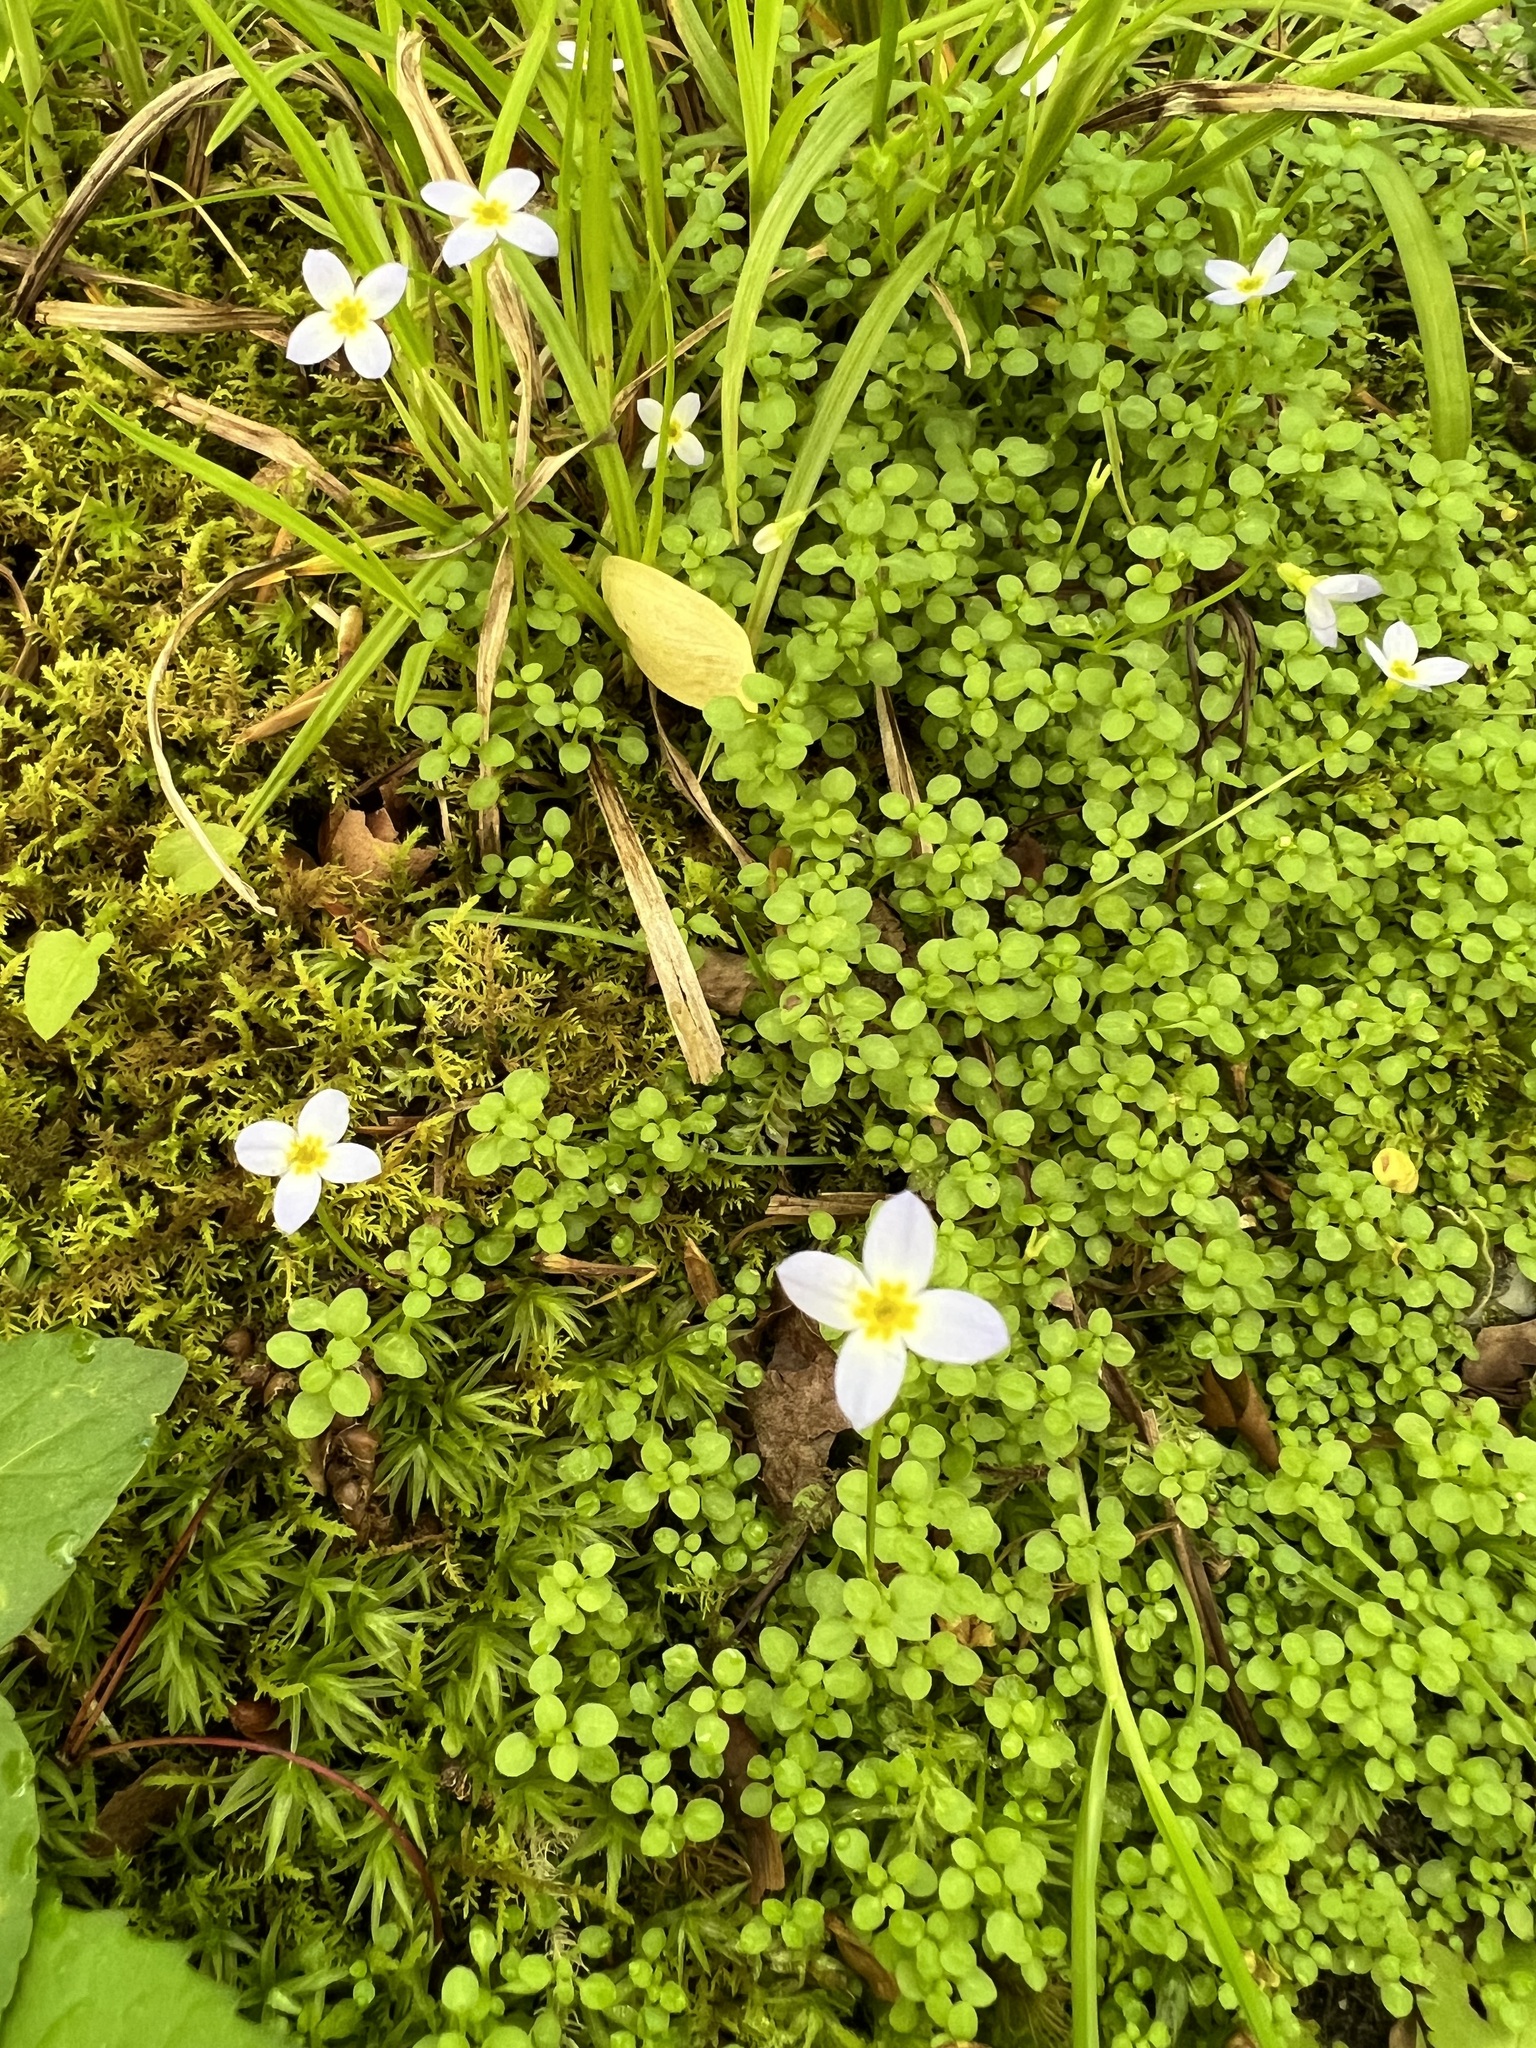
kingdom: Plantae
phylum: Tracheophyta
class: Magnoliopsida
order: Gentianales
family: Rubiaceae
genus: Houstonia
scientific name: Houstonia serpyllifolia
